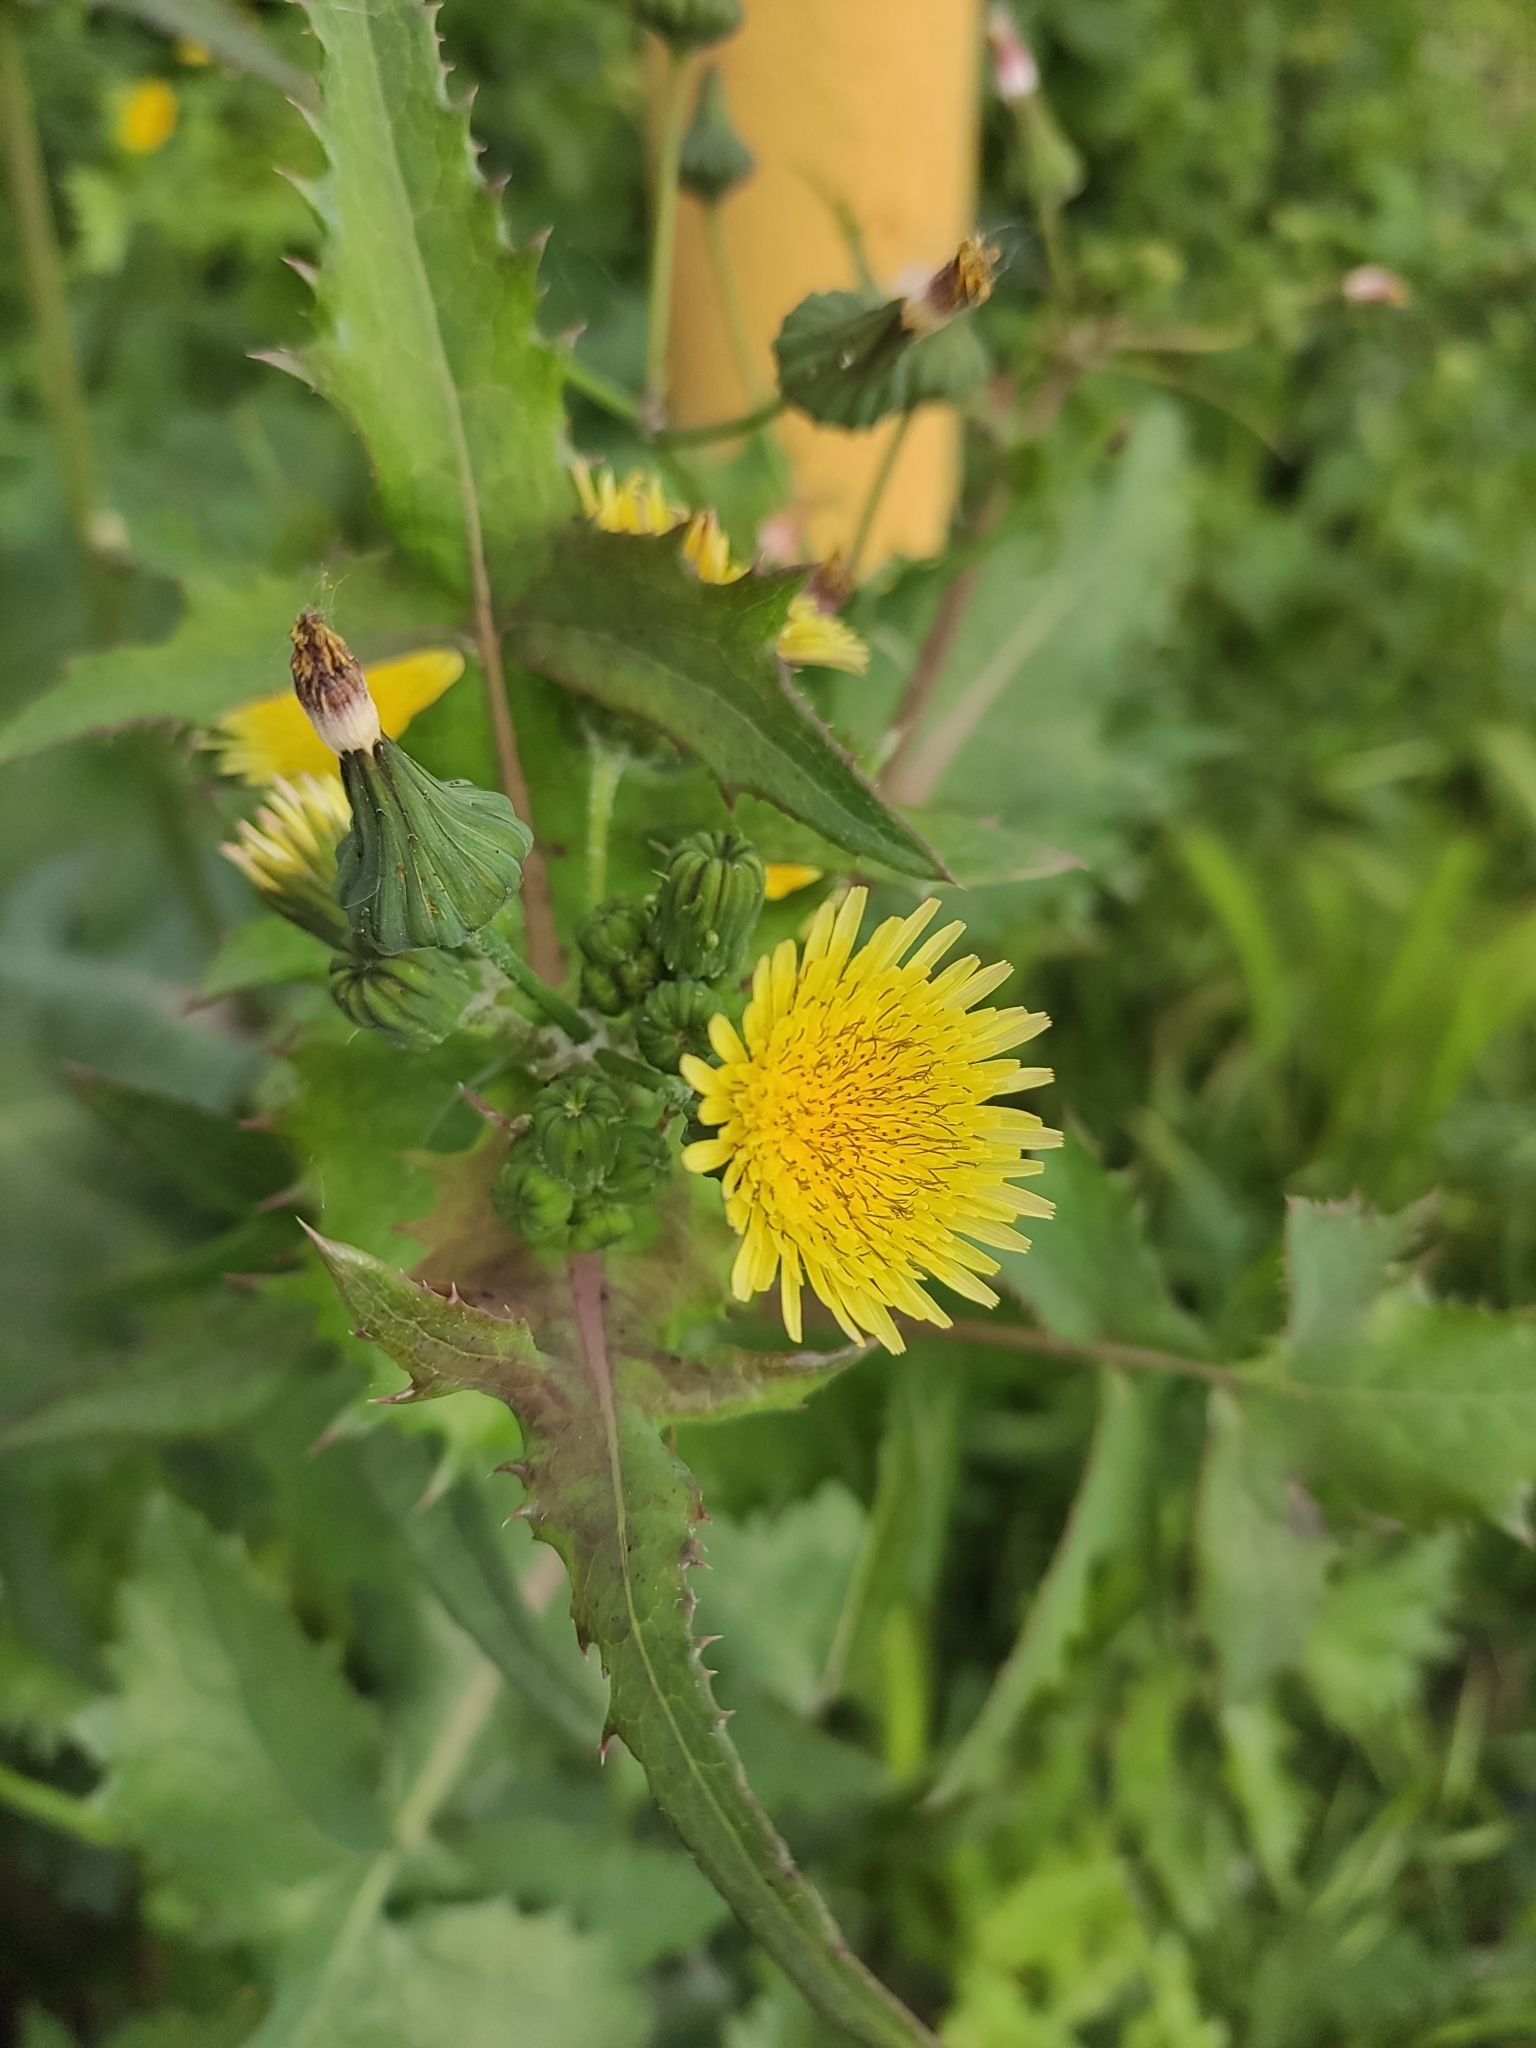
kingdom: Plantae
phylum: Tracheophyta
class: Magnoliopsida
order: Asterales
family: Asteraceae
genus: Sonchus
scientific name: Sonchus oleraceus
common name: Common sowthistle
